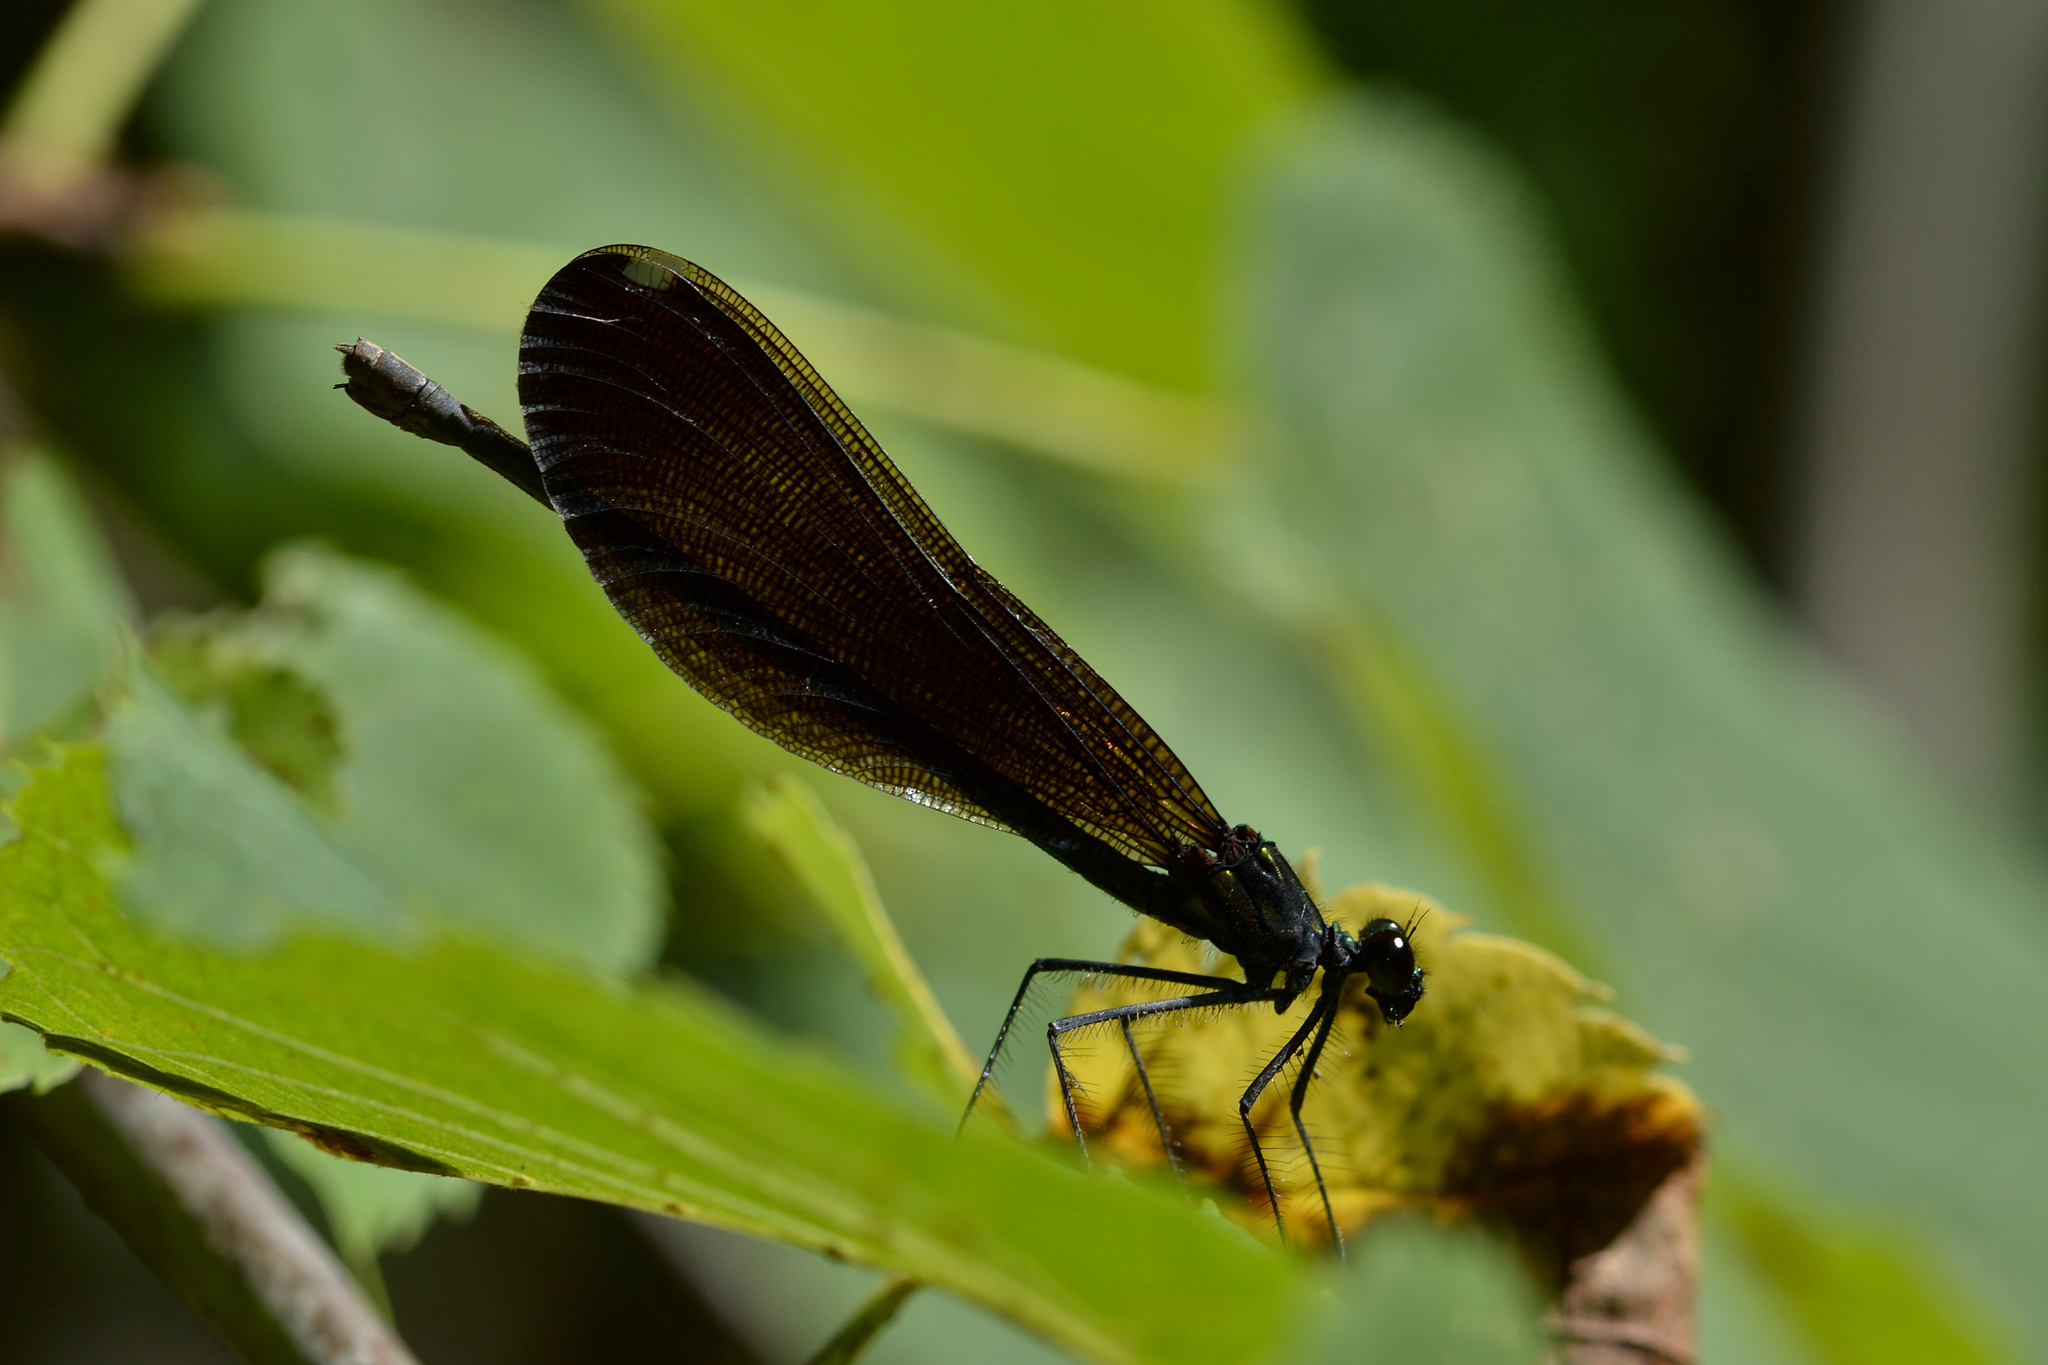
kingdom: Animalia
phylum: Arthropoda
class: Insecta
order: Odonata
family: Calopterygidae
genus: Calopteryx
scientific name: Calopteryx maculata
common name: Ebony jewelwing
